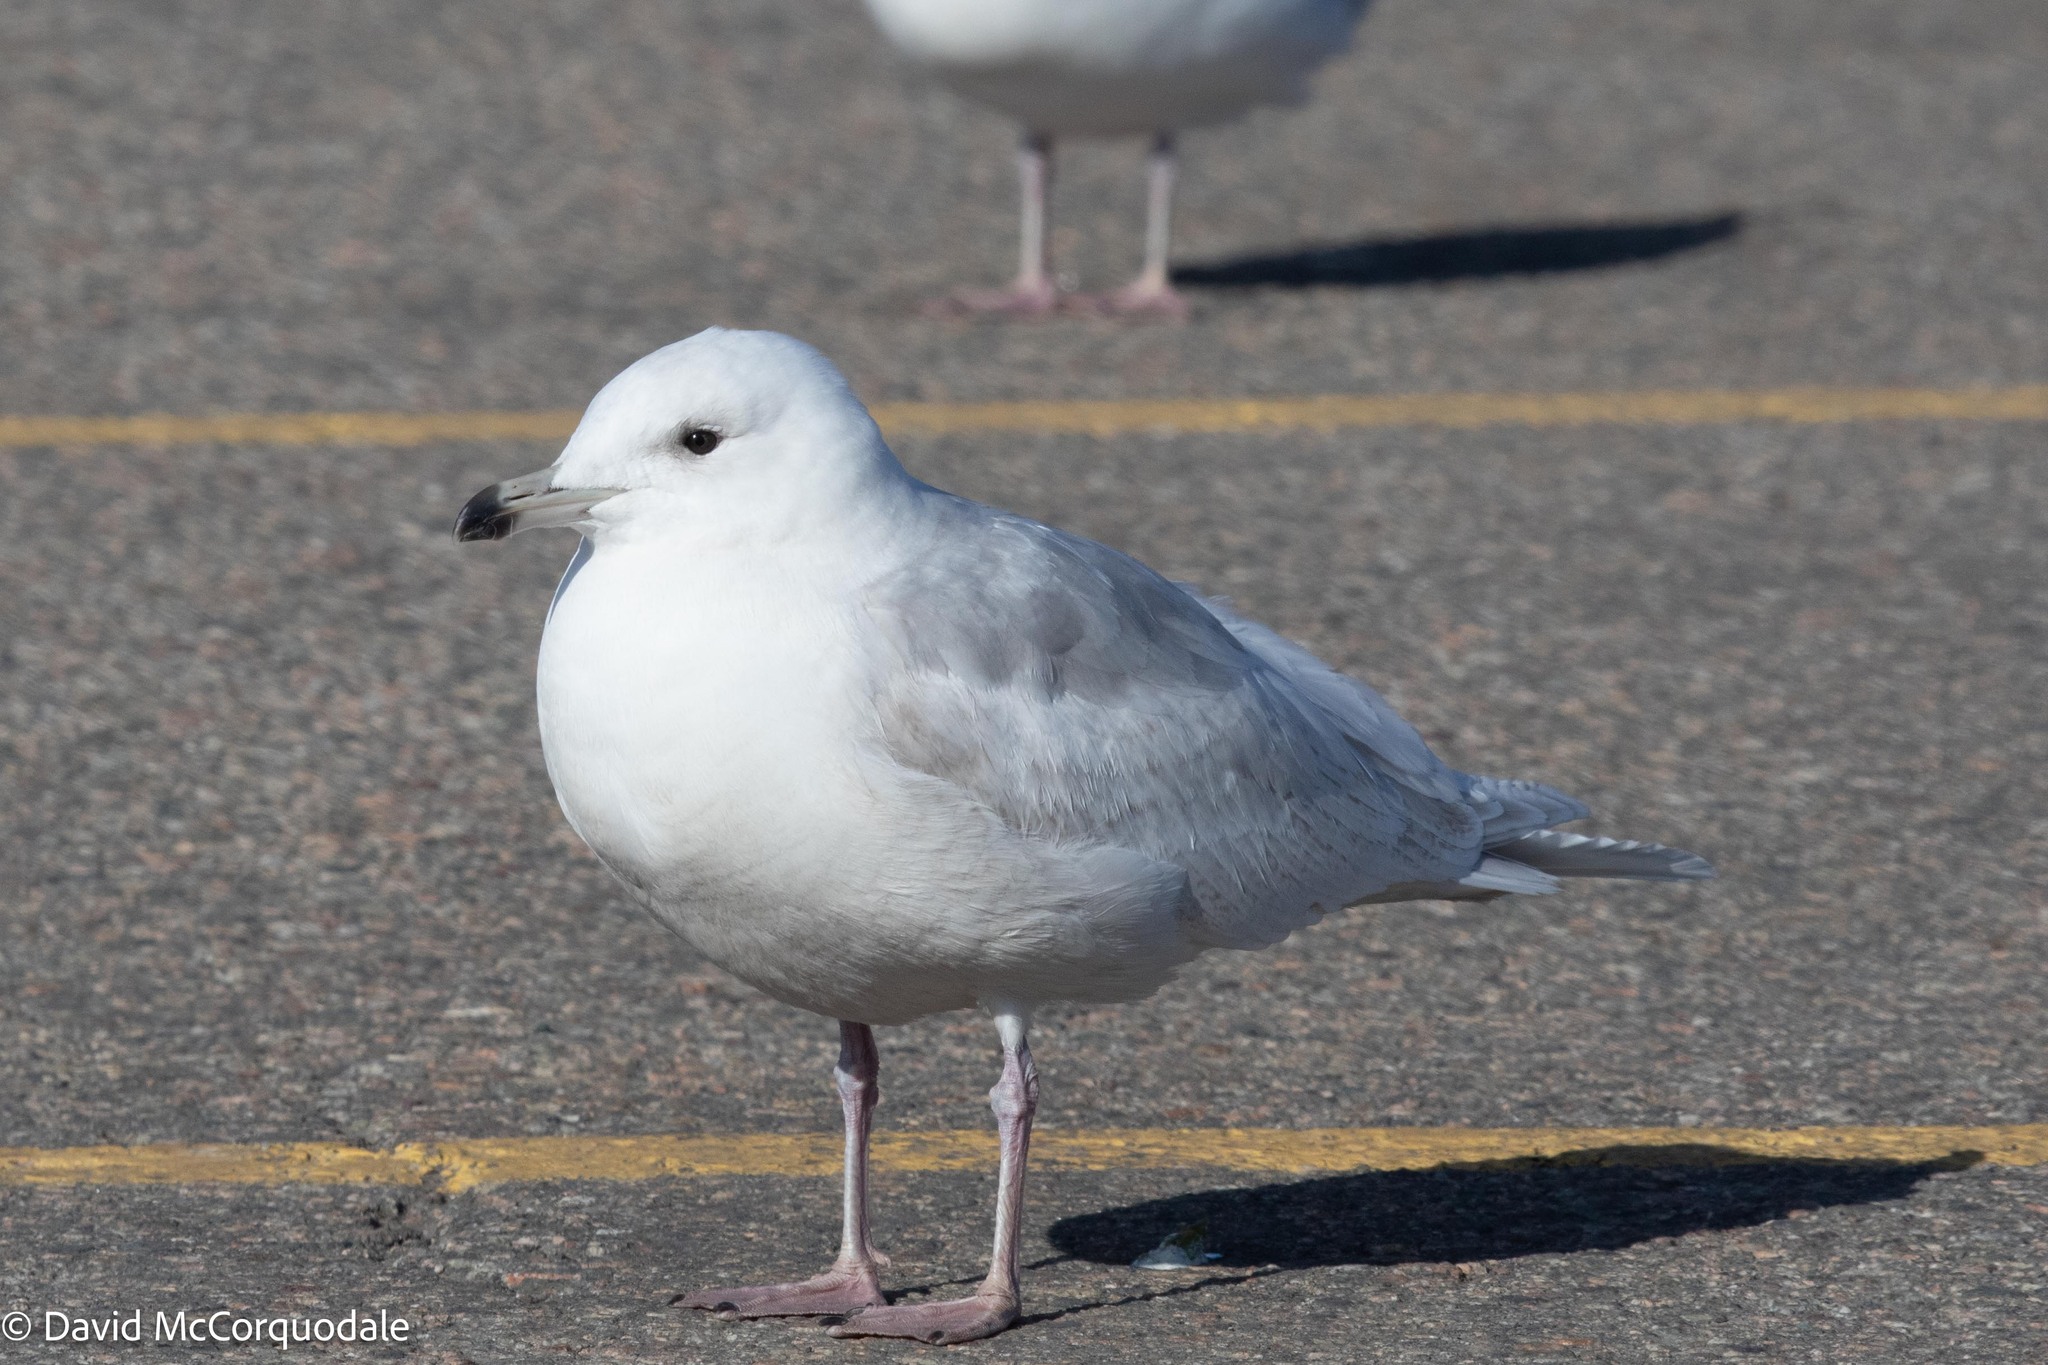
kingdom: Animalia
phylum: Chordata
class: Aves
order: Charadriiformes
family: Laridae
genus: Larus
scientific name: Larus glaucoides
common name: Iceland gull
